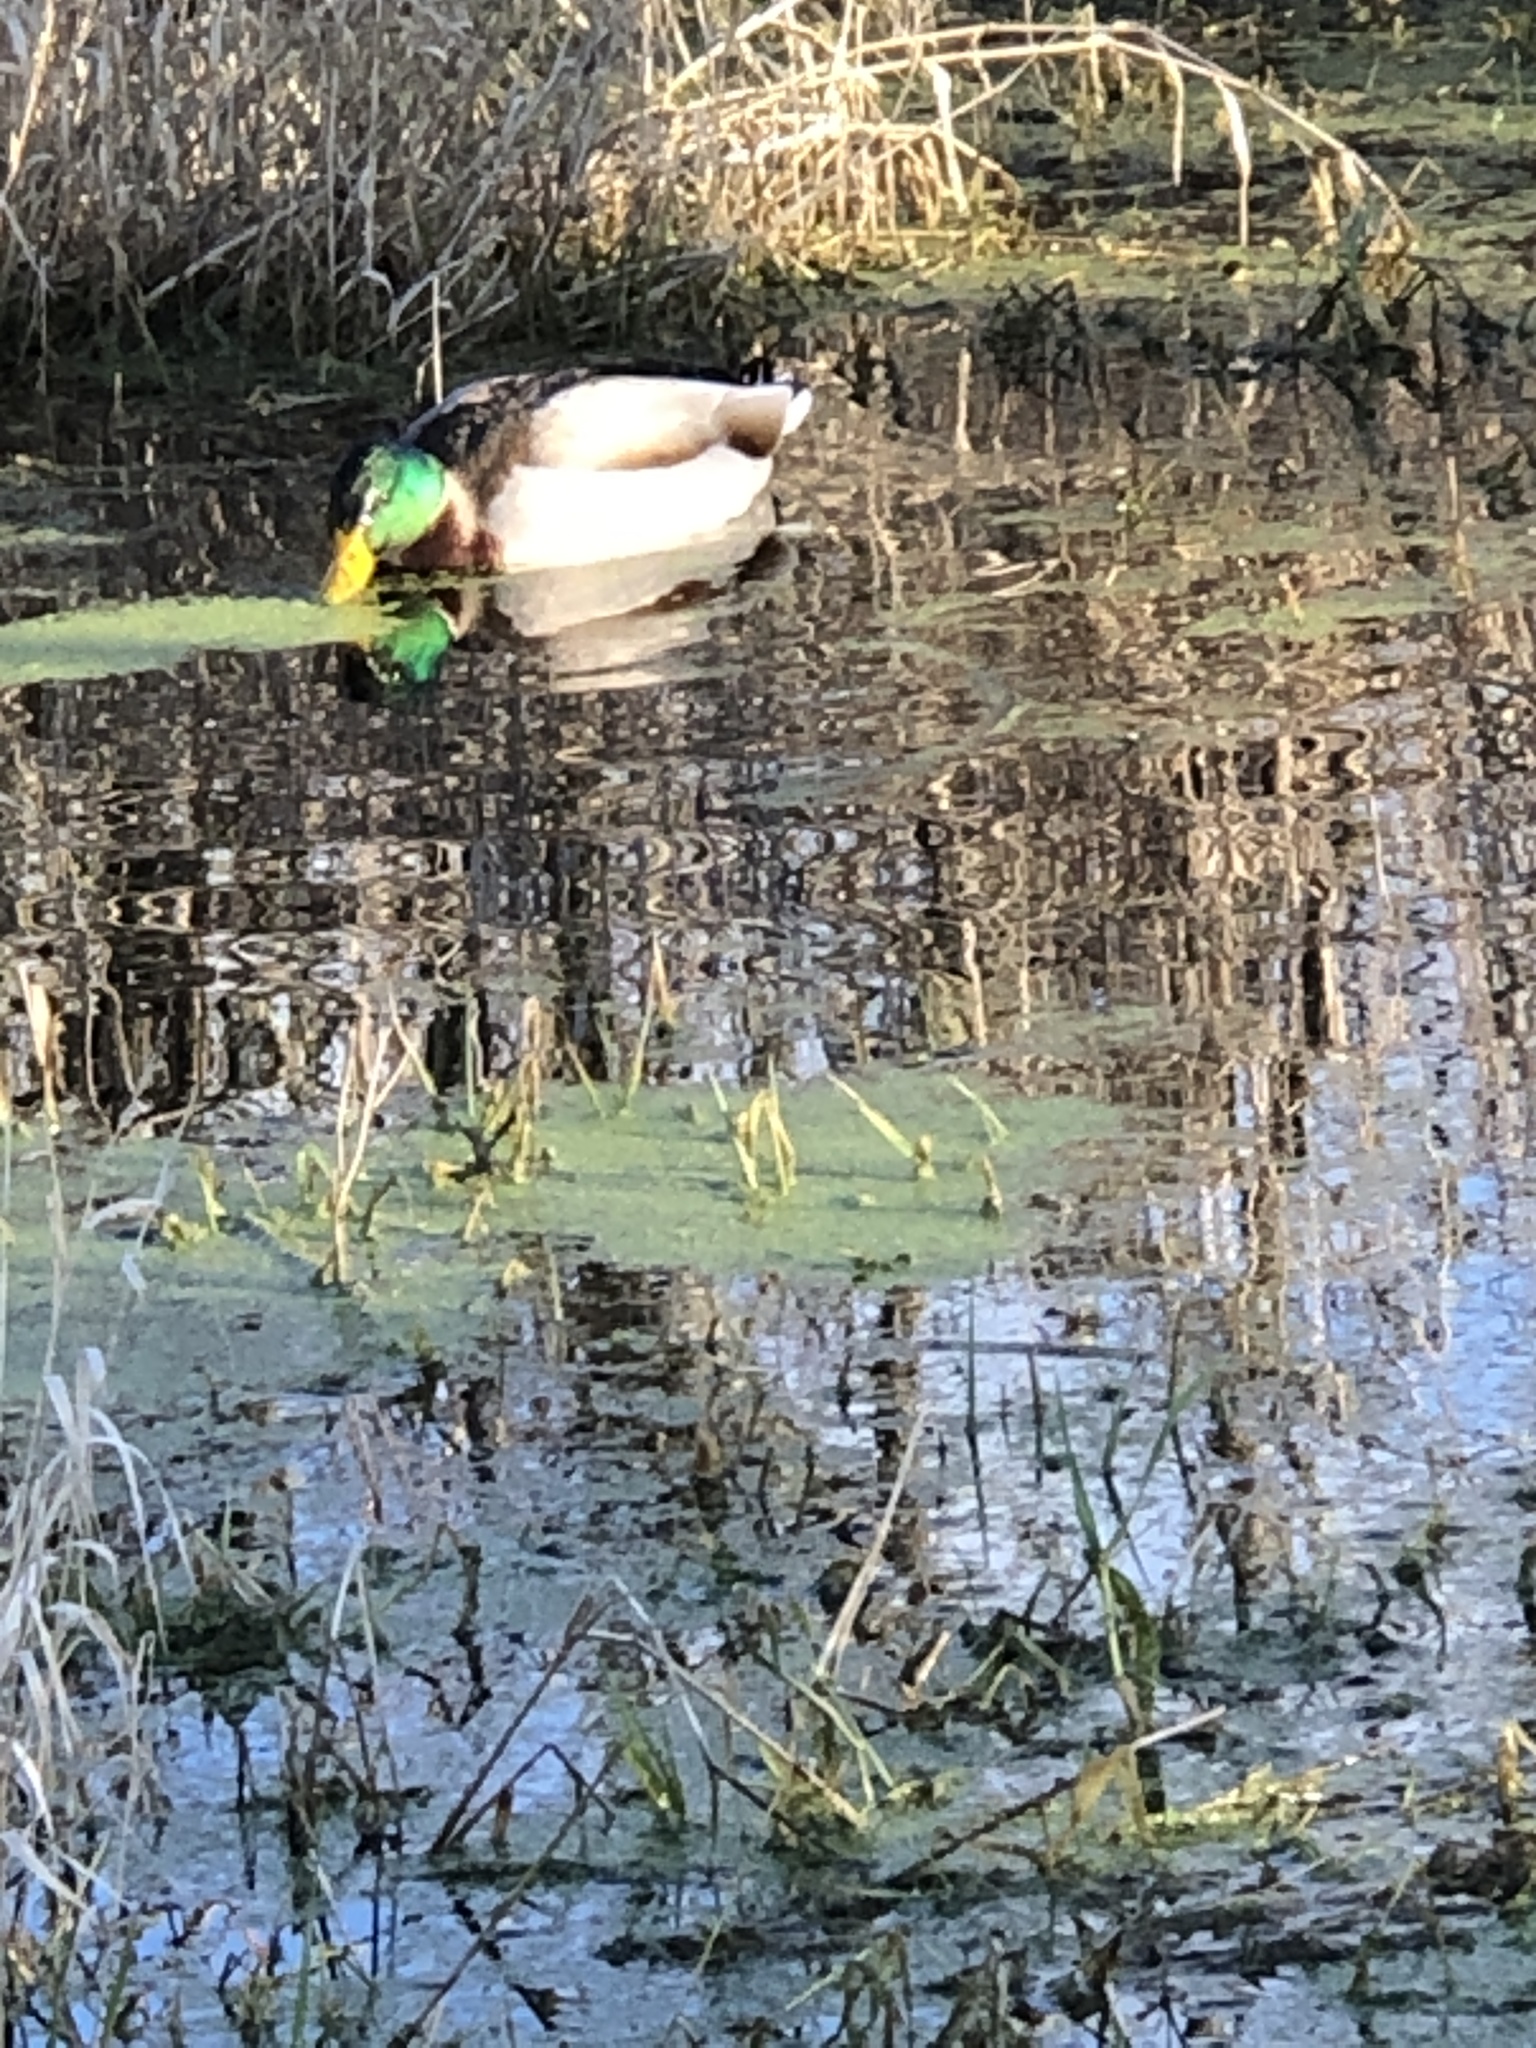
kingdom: Animalia
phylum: Chordata
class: Aves
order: Anseriformes
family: Anatidae
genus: Anas
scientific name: Anas platyrhynchos
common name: Mallard
